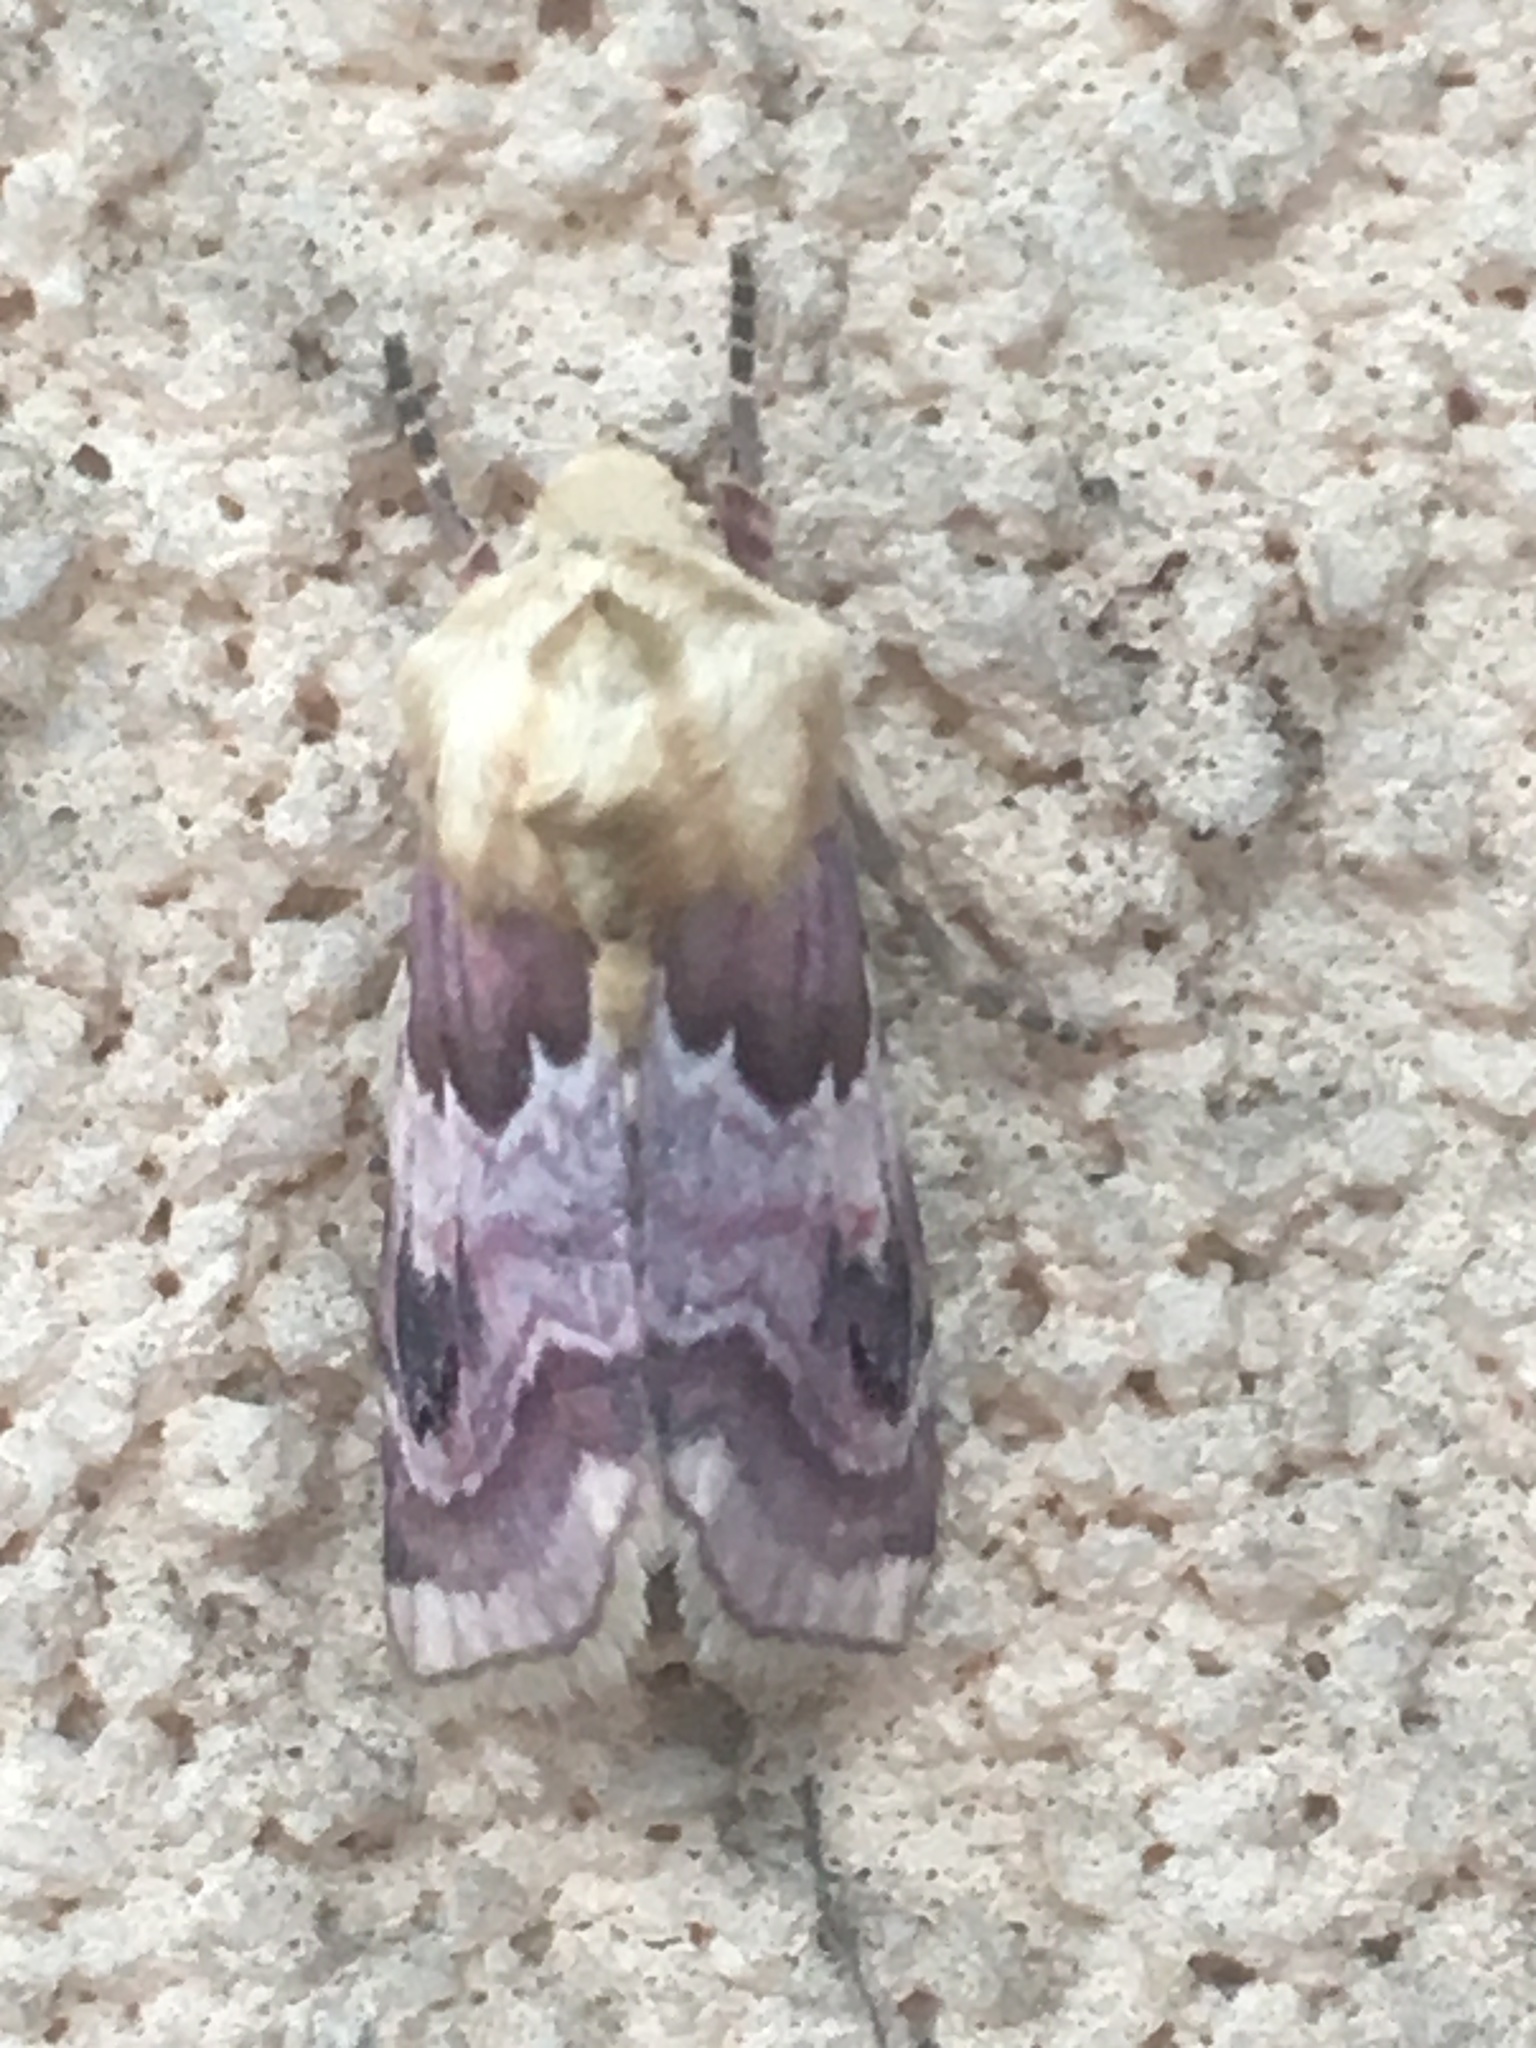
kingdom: Animalia
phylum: Arthropoda
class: Insecta
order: Lepidoptera
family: Noctuidae
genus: Periphanes
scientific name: Periphanes delphinii
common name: Pease blossom
